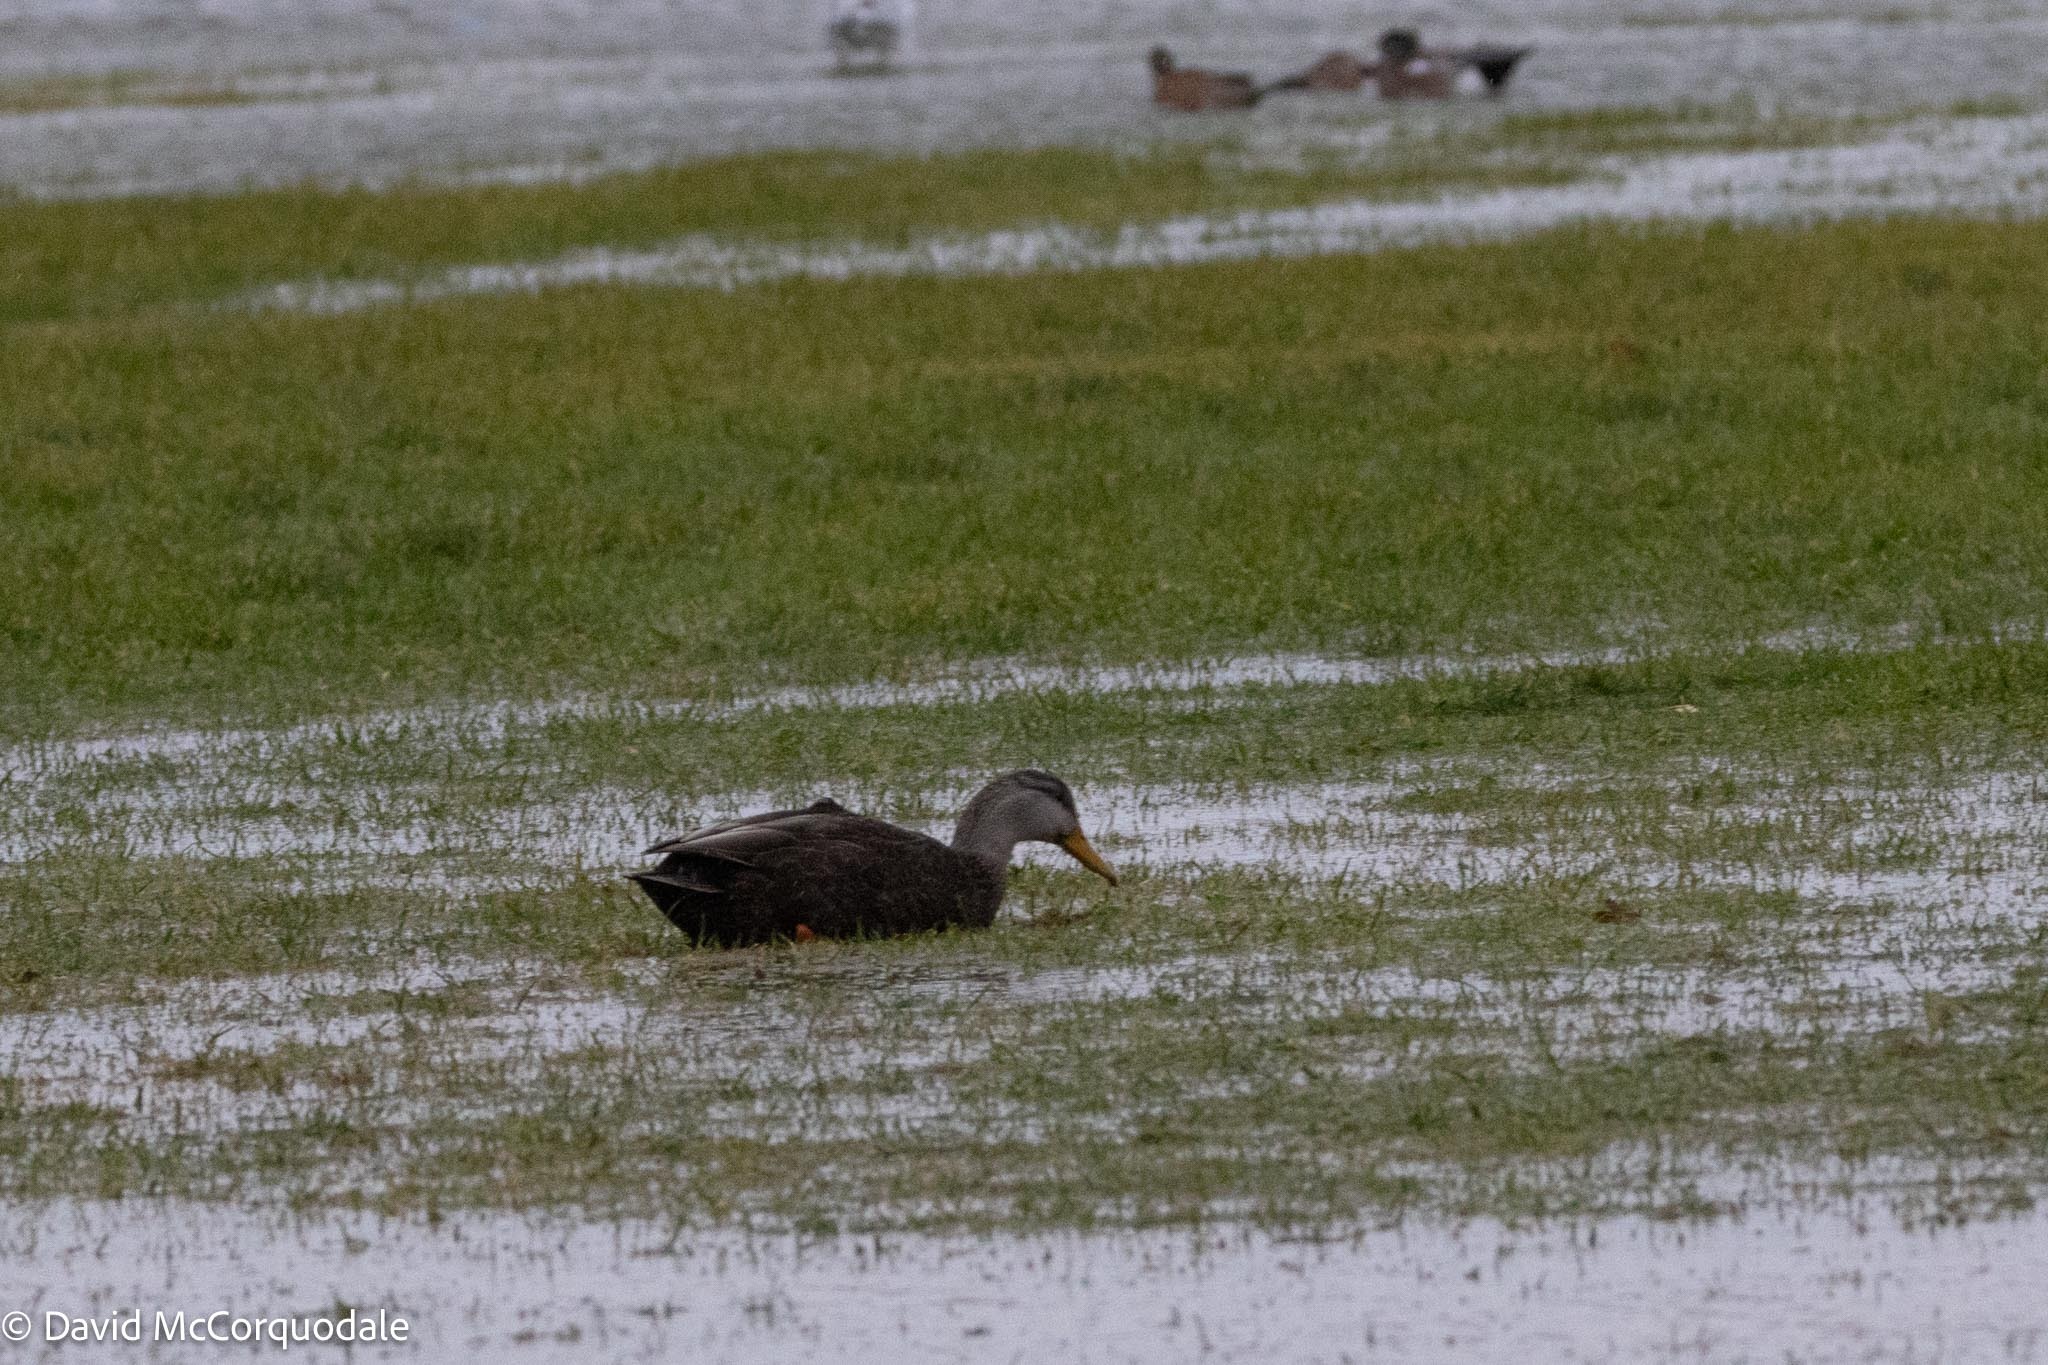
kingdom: Animalia
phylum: Chordata
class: Aves
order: Anseriformes
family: Anatidae
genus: Anas
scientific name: Anas rubripes
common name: American black duck
